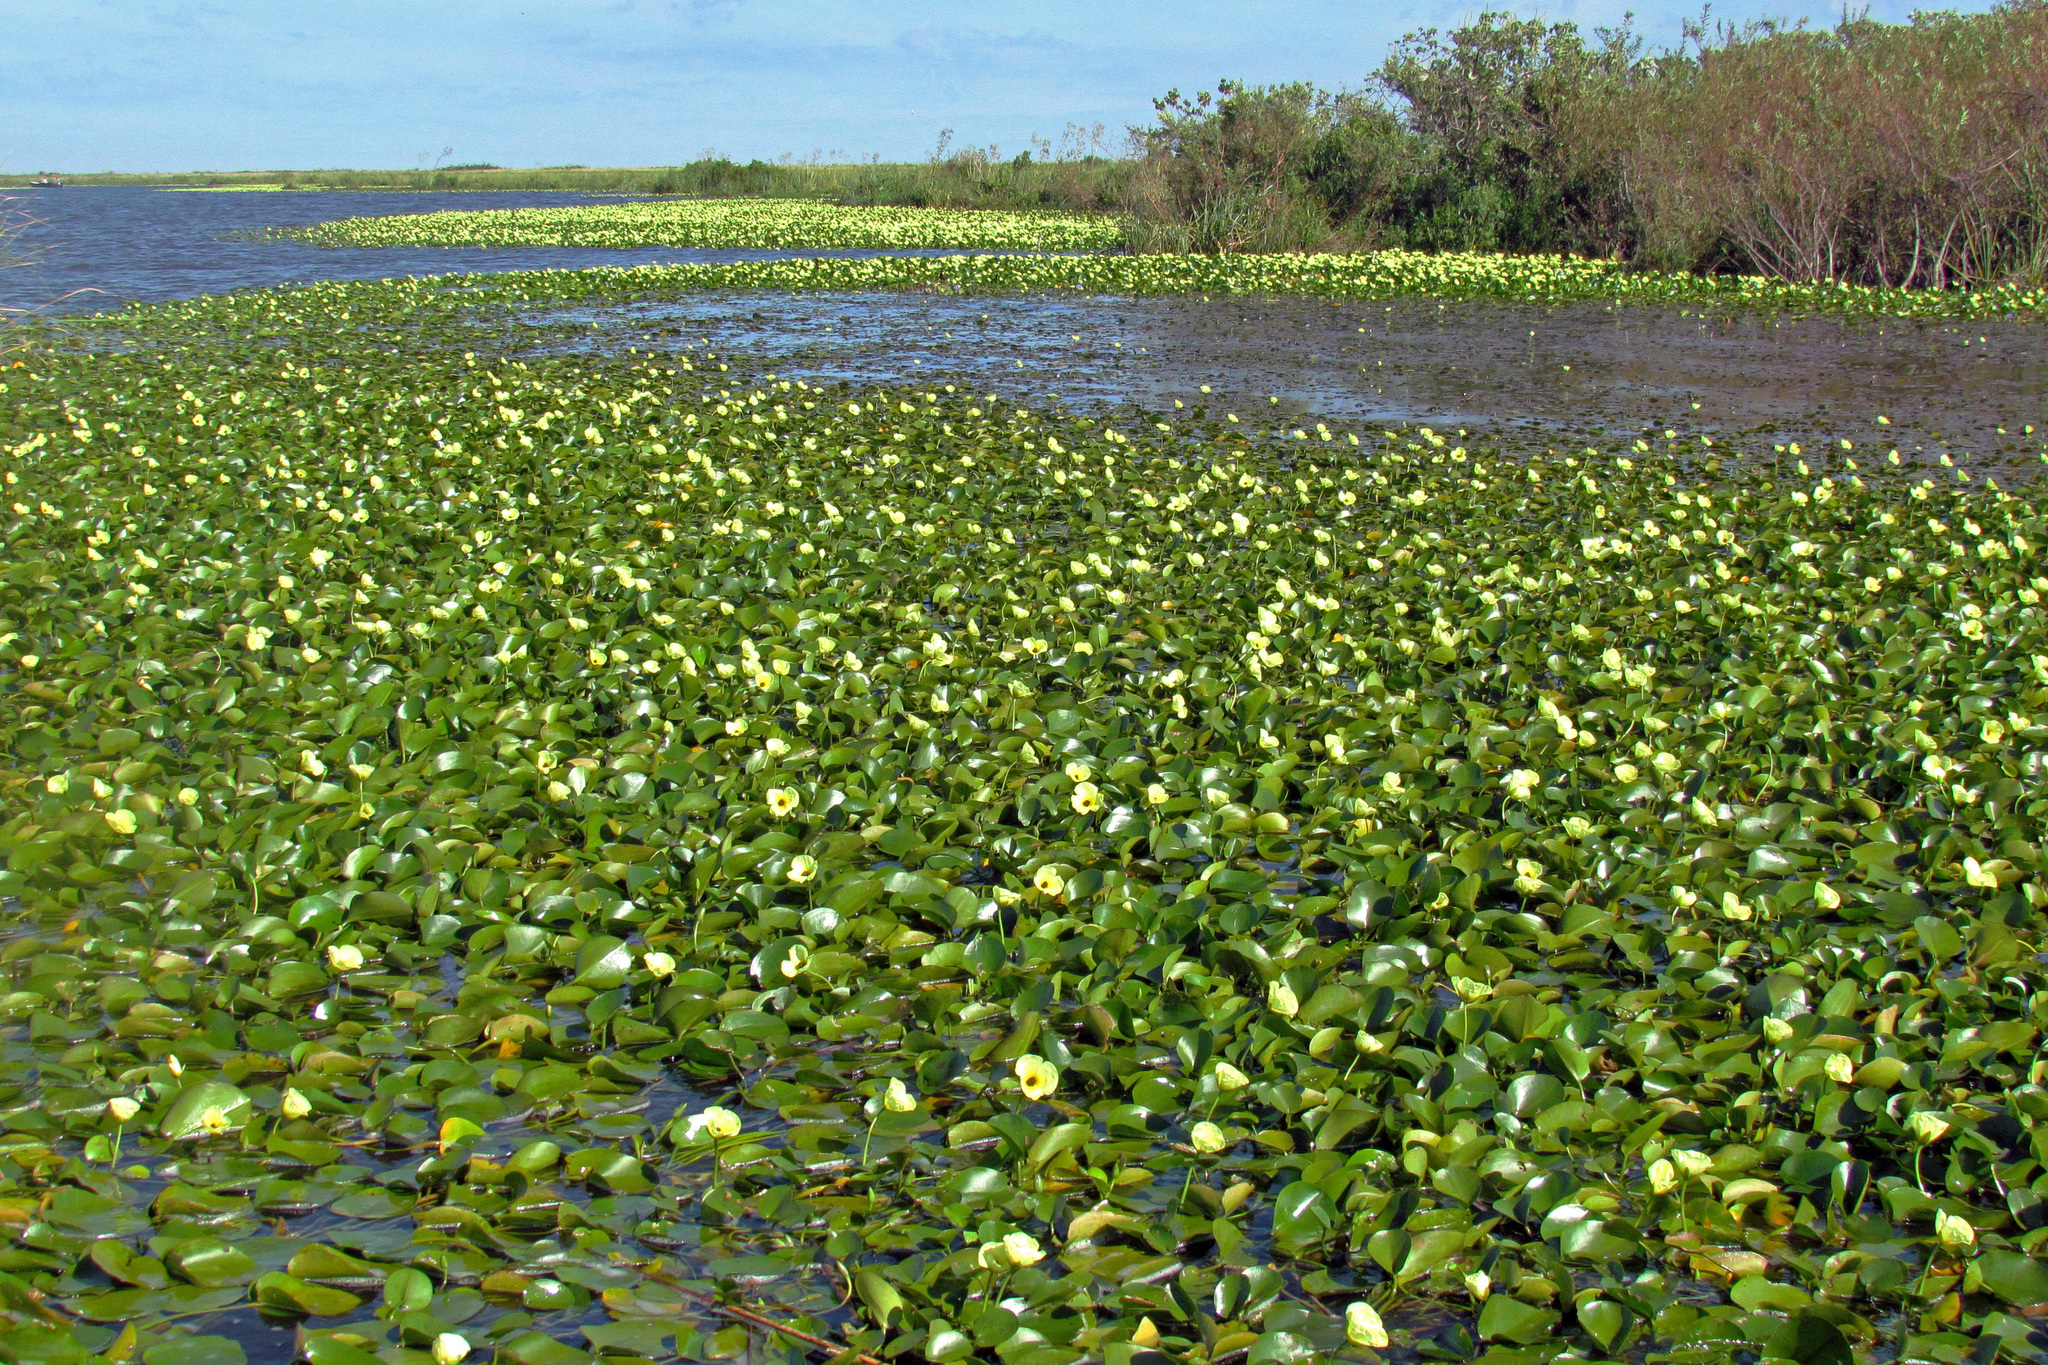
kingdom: Plantae
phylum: Tracheophyta
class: Liliopsida
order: Alismatales
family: Alismataceae
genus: Hydrocleys
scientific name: Hydrocleys nymphoides
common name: Water-poppy
